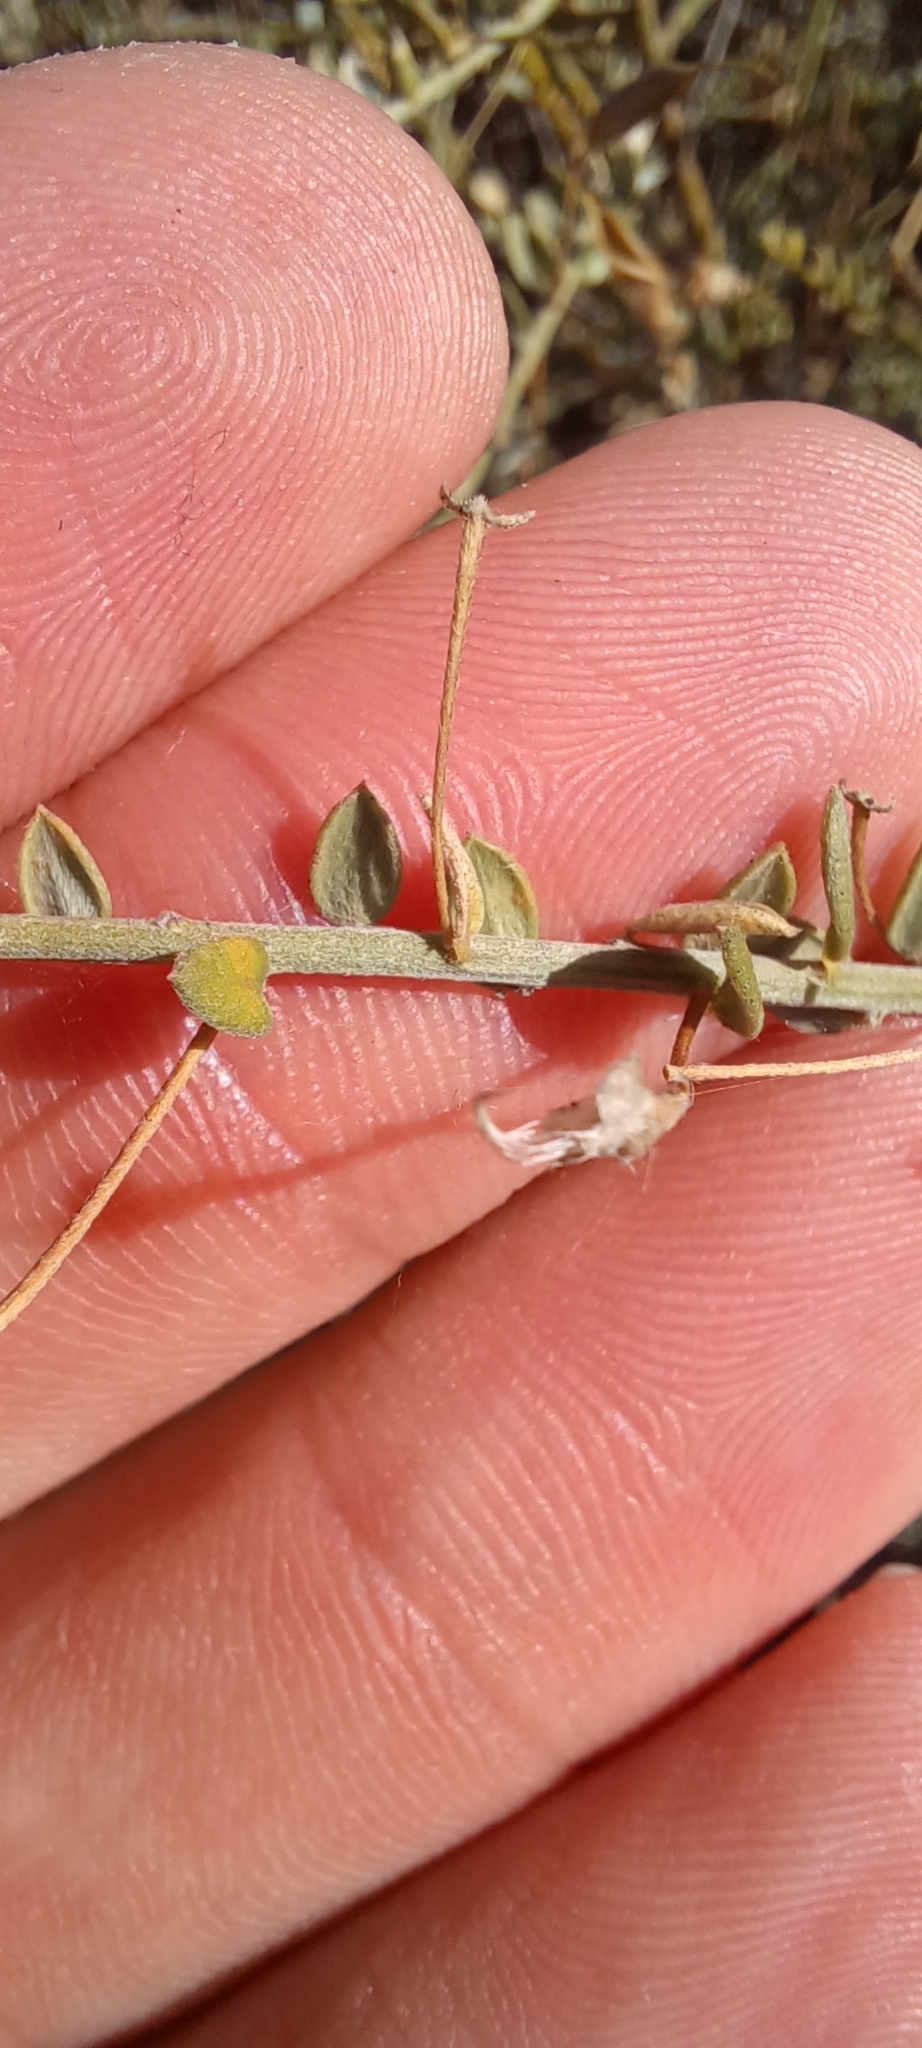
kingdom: Plantae
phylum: Tracheophyta
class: Magnoliopsida
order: Fabales
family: Fabaceae
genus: Amphithalea
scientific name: Amphithalea spinosa
